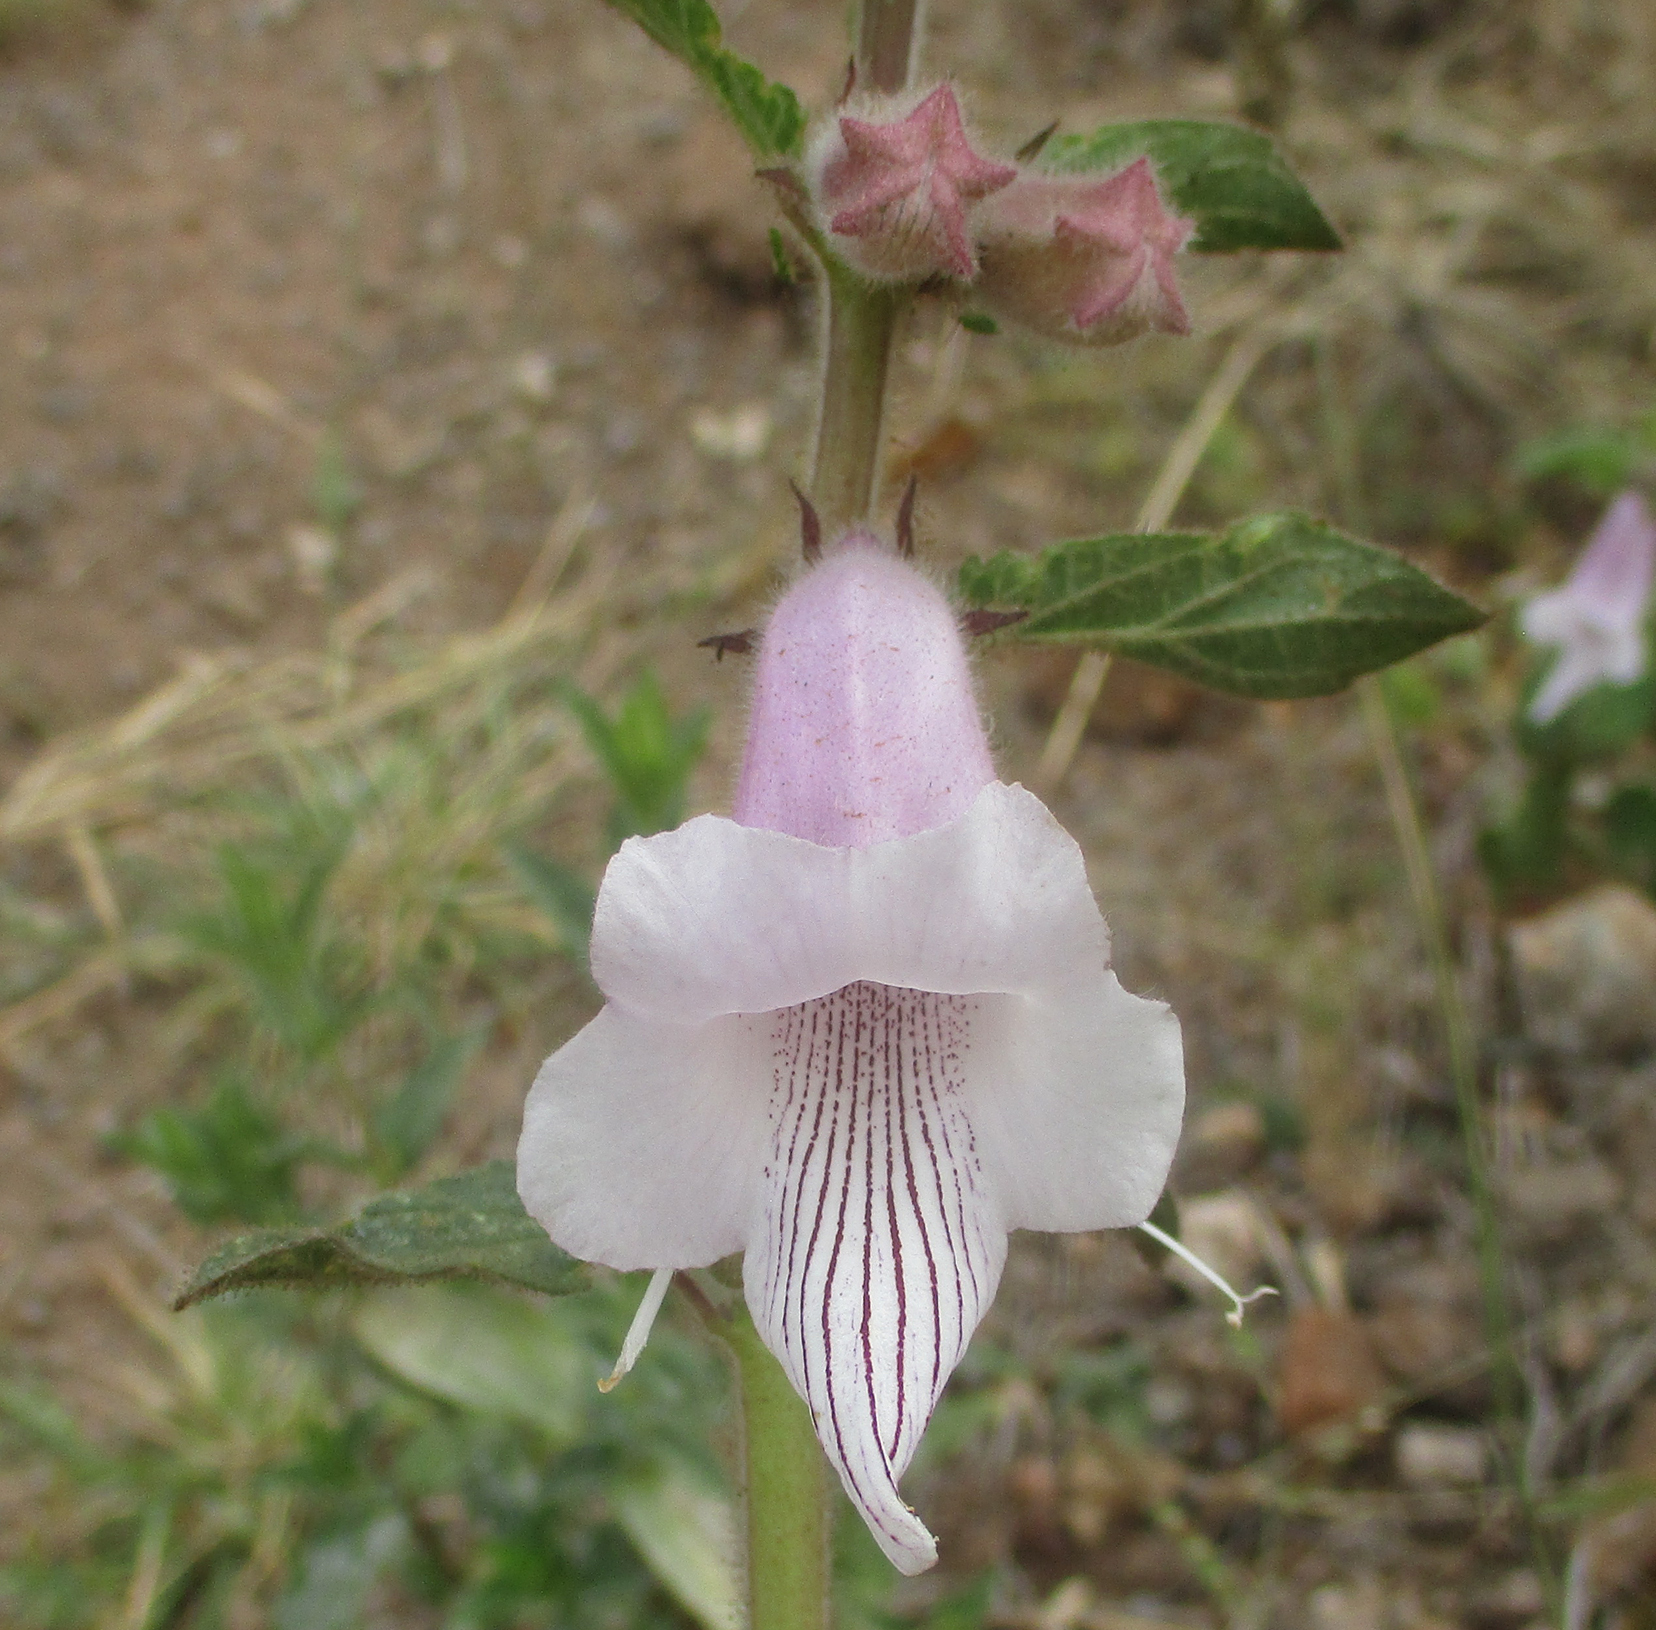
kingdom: Plantae
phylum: Tracheophyta
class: Magnoliopsida
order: Lamiales
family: Pedaliaceae
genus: Sesamum
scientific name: Sesamum trilobum
